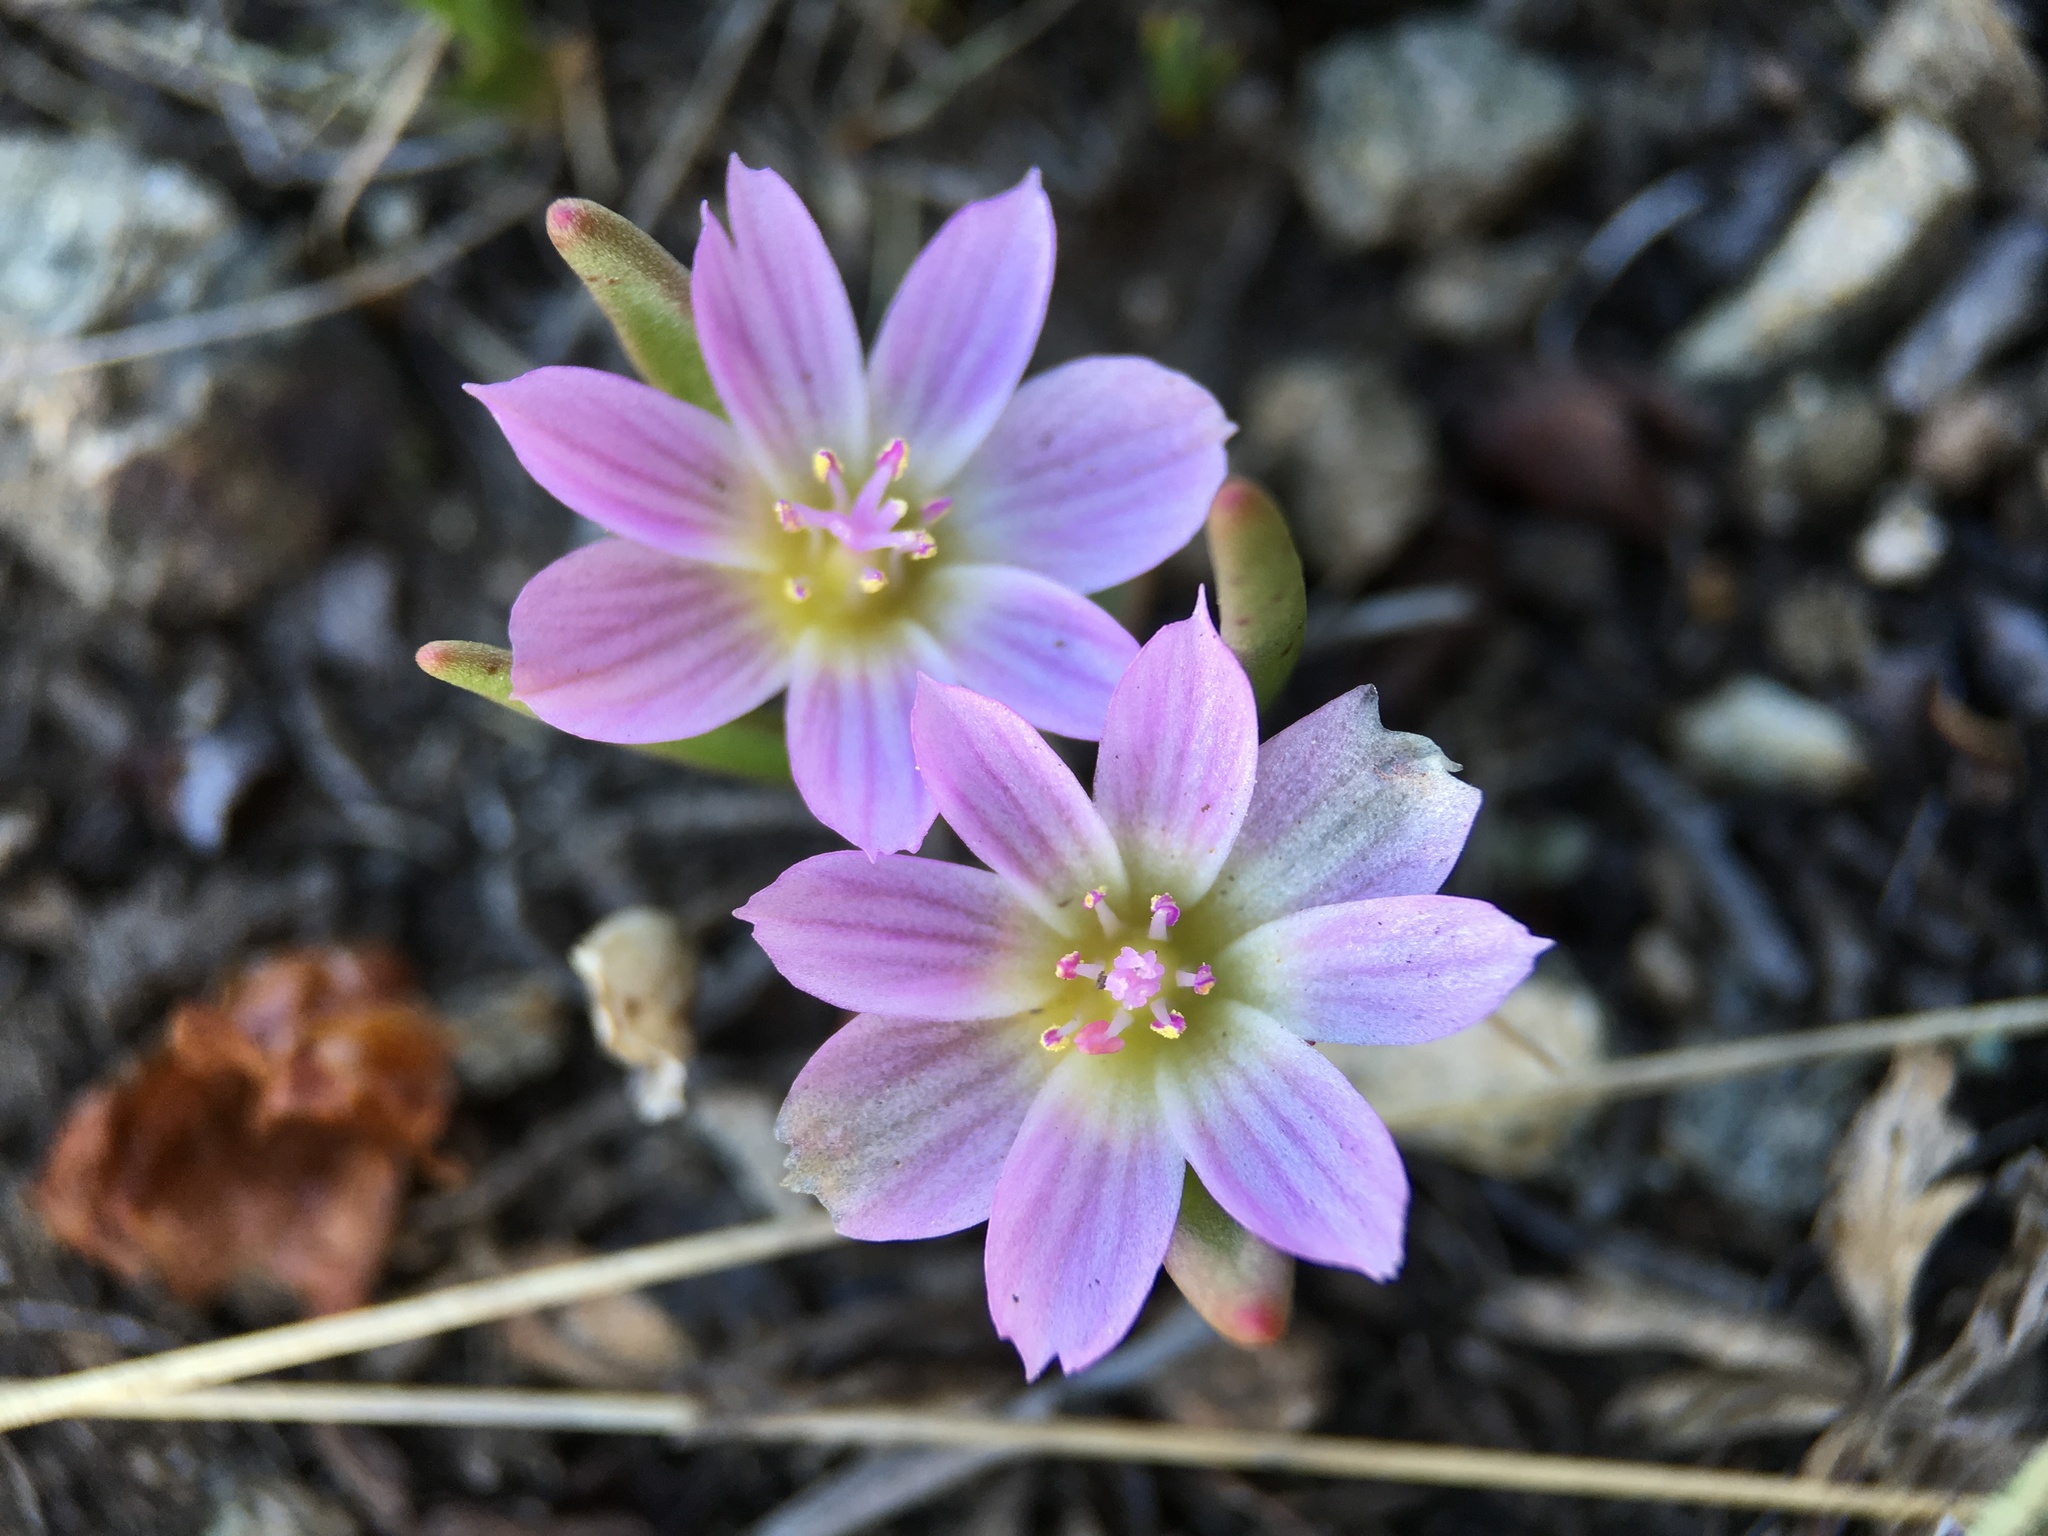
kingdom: Plantae
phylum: Tracheophyta
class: Magnoliopsida
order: Caryophyllales
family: Montiaceae
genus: Lewisia
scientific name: Lewisia pygmaea
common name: Alpine bitterroot
